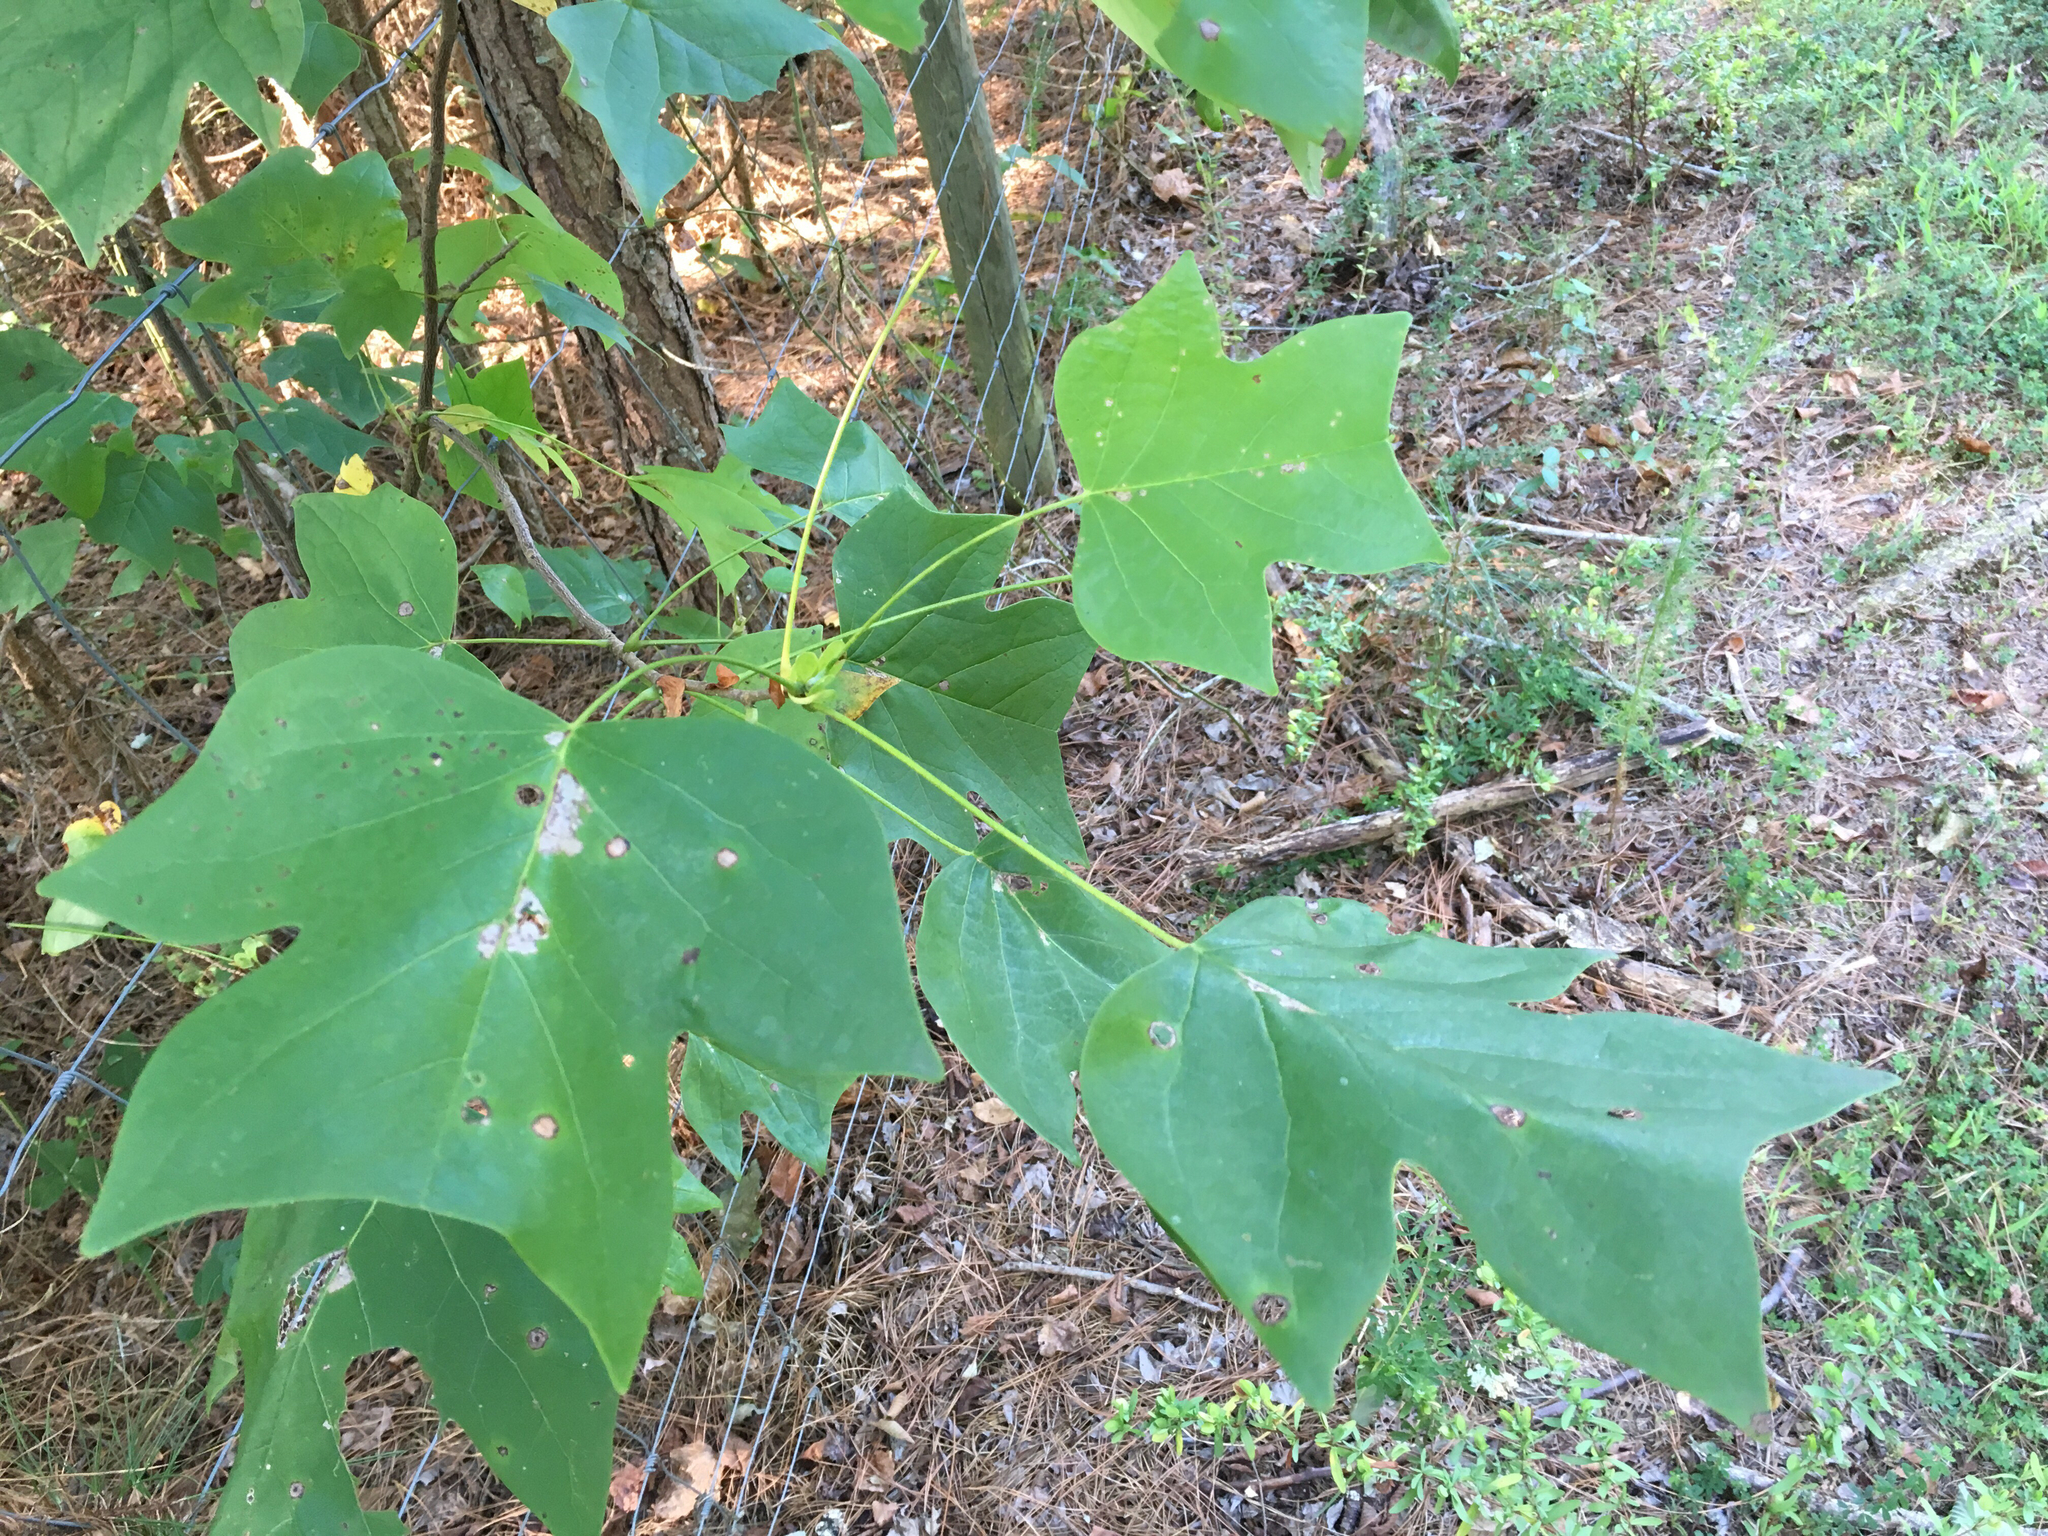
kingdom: Plantae
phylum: Tracheophyta
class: Magnoliopsida
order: Magnoliales
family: Magnoliaceae
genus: Liriodendron
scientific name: Liriodendron tulipifera
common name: Tulip tree
